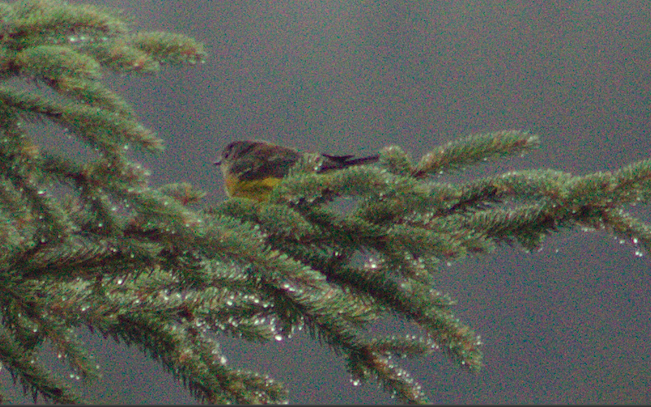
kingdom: Animalia
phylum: Chordata
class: Aves
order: Passeriformes
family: Parulidae
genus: Setophaga
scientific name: Setophaga magnolia
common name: Magnolia warbler
